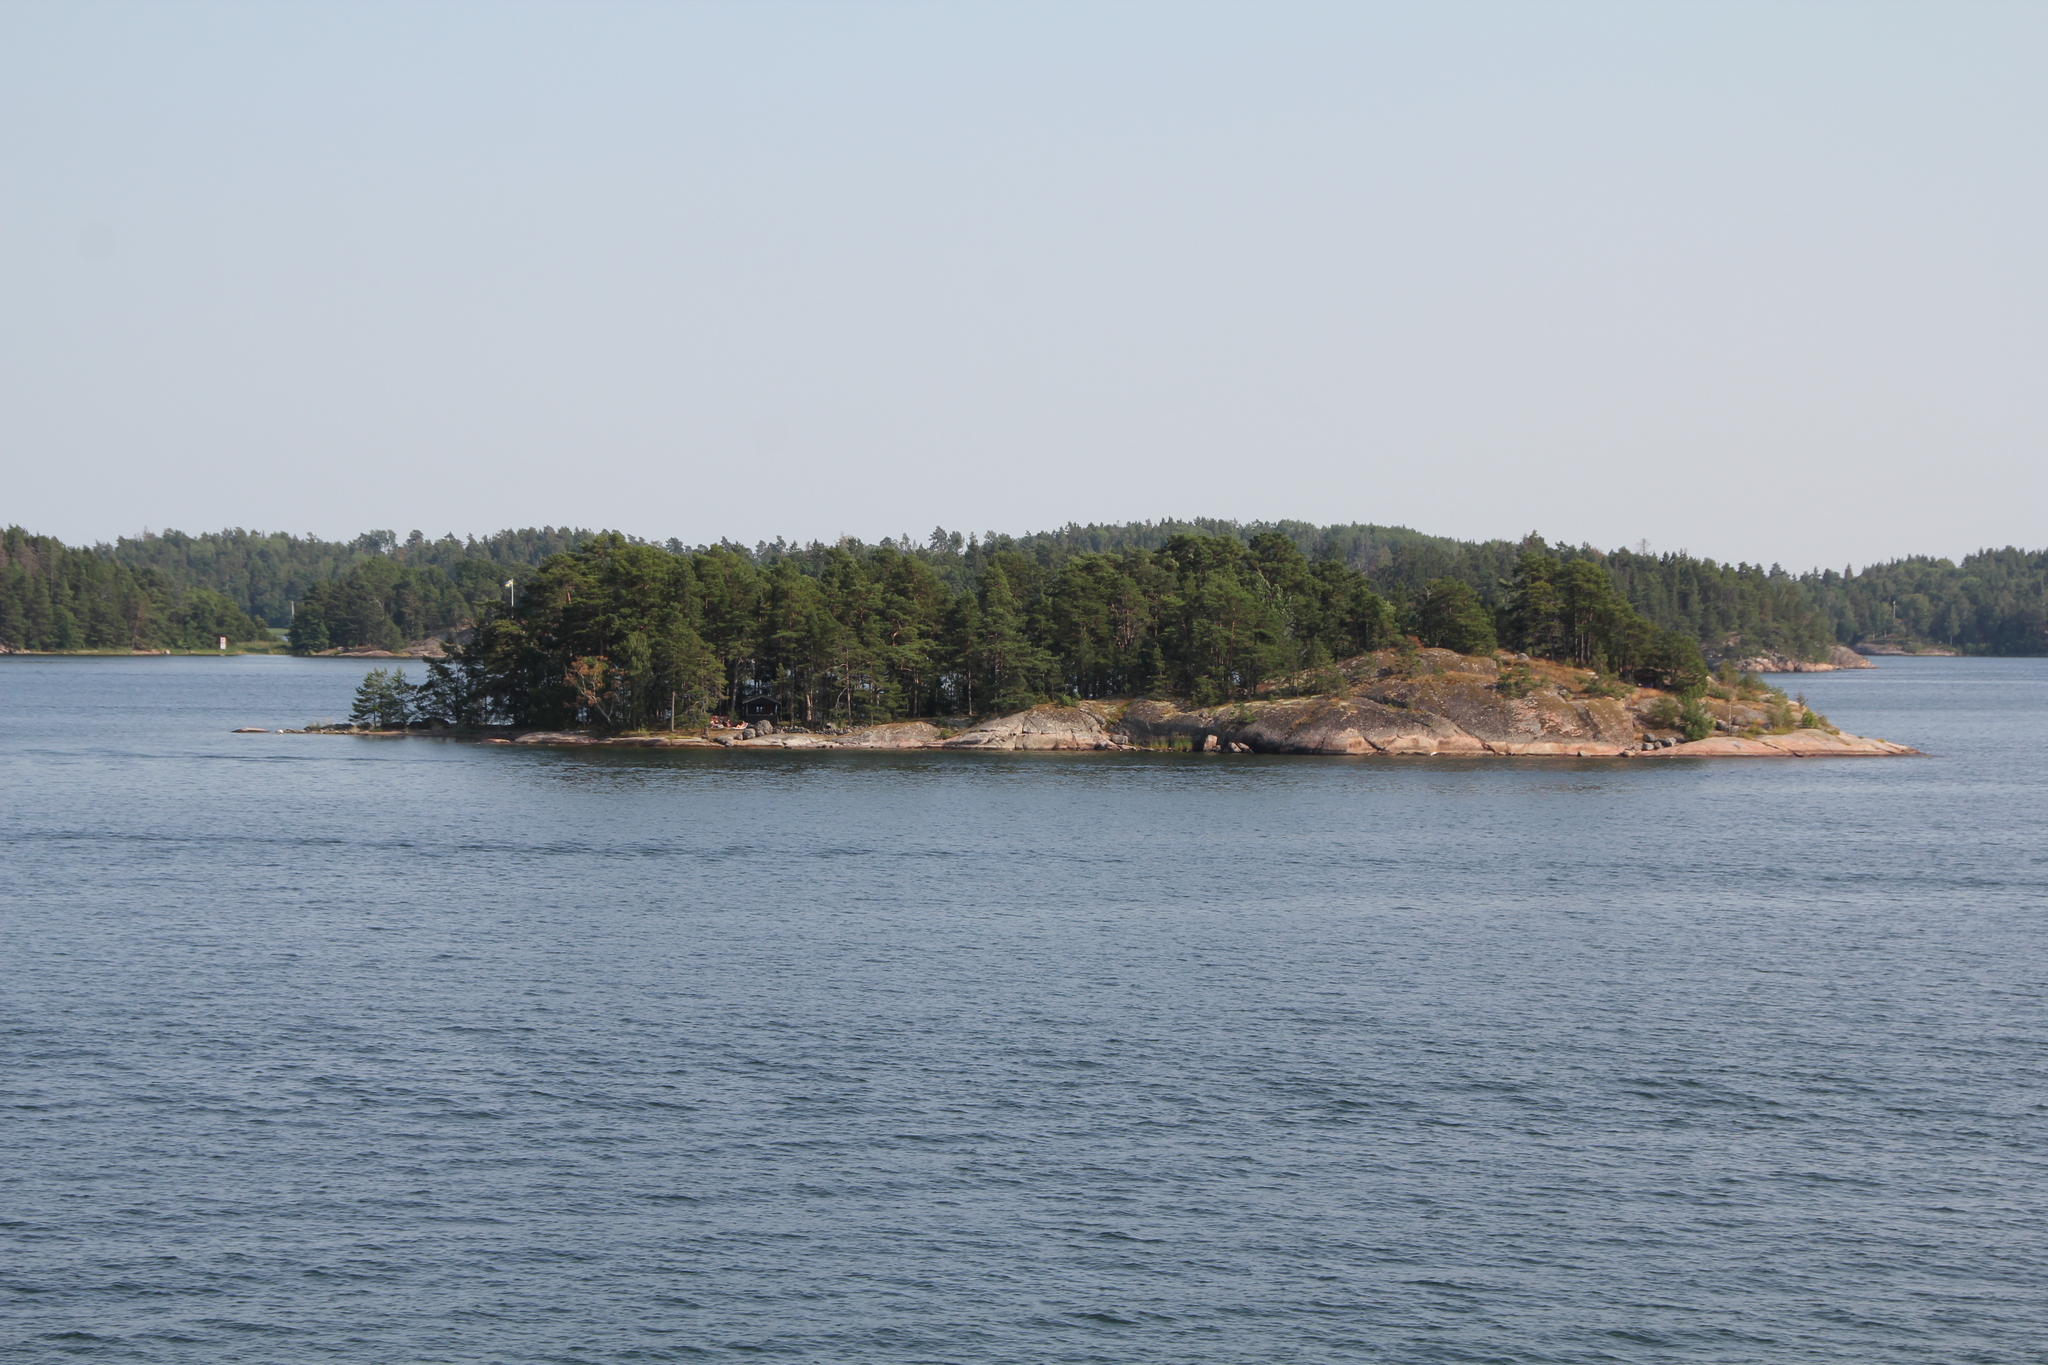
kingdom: Plantae
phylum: Tracheophyta
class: Pinopsida
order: Pinales
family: Pinaceae
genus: Pinus
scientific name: Pinus sylvestris
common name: Scots pine
